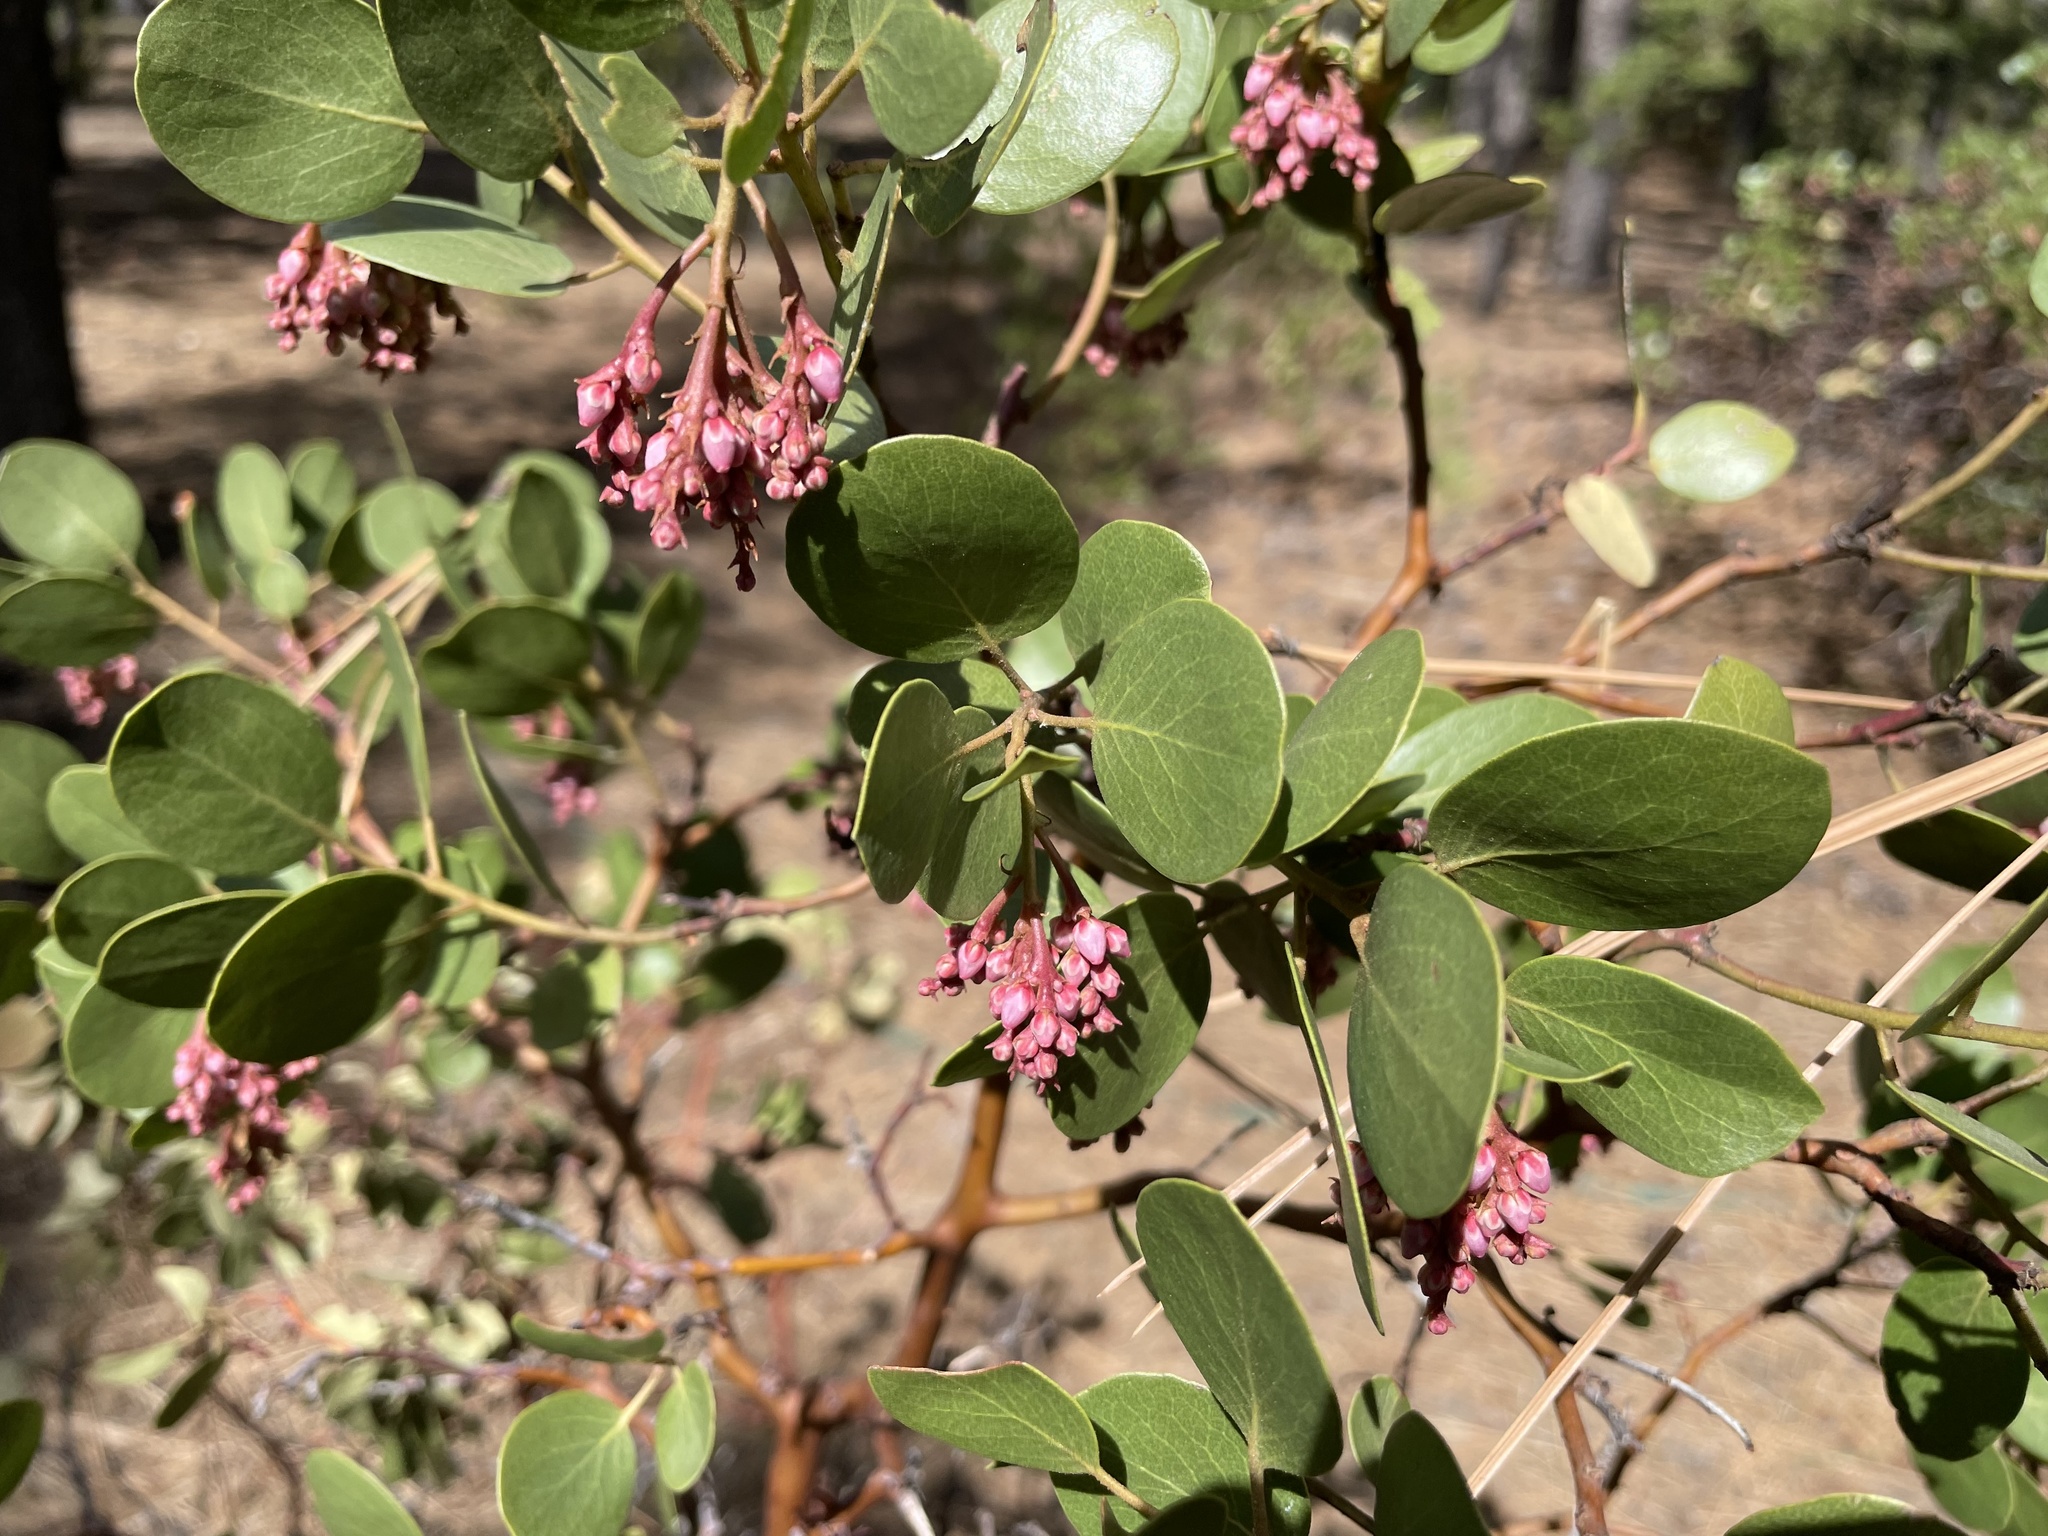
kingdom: Plantae
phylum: Tracheophyta
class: Magnoliopsida
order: Ericales
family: Ericaceae
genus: Arctostaphylos
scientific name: Arctostaphylos patula
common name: Green-leaf manzanita
